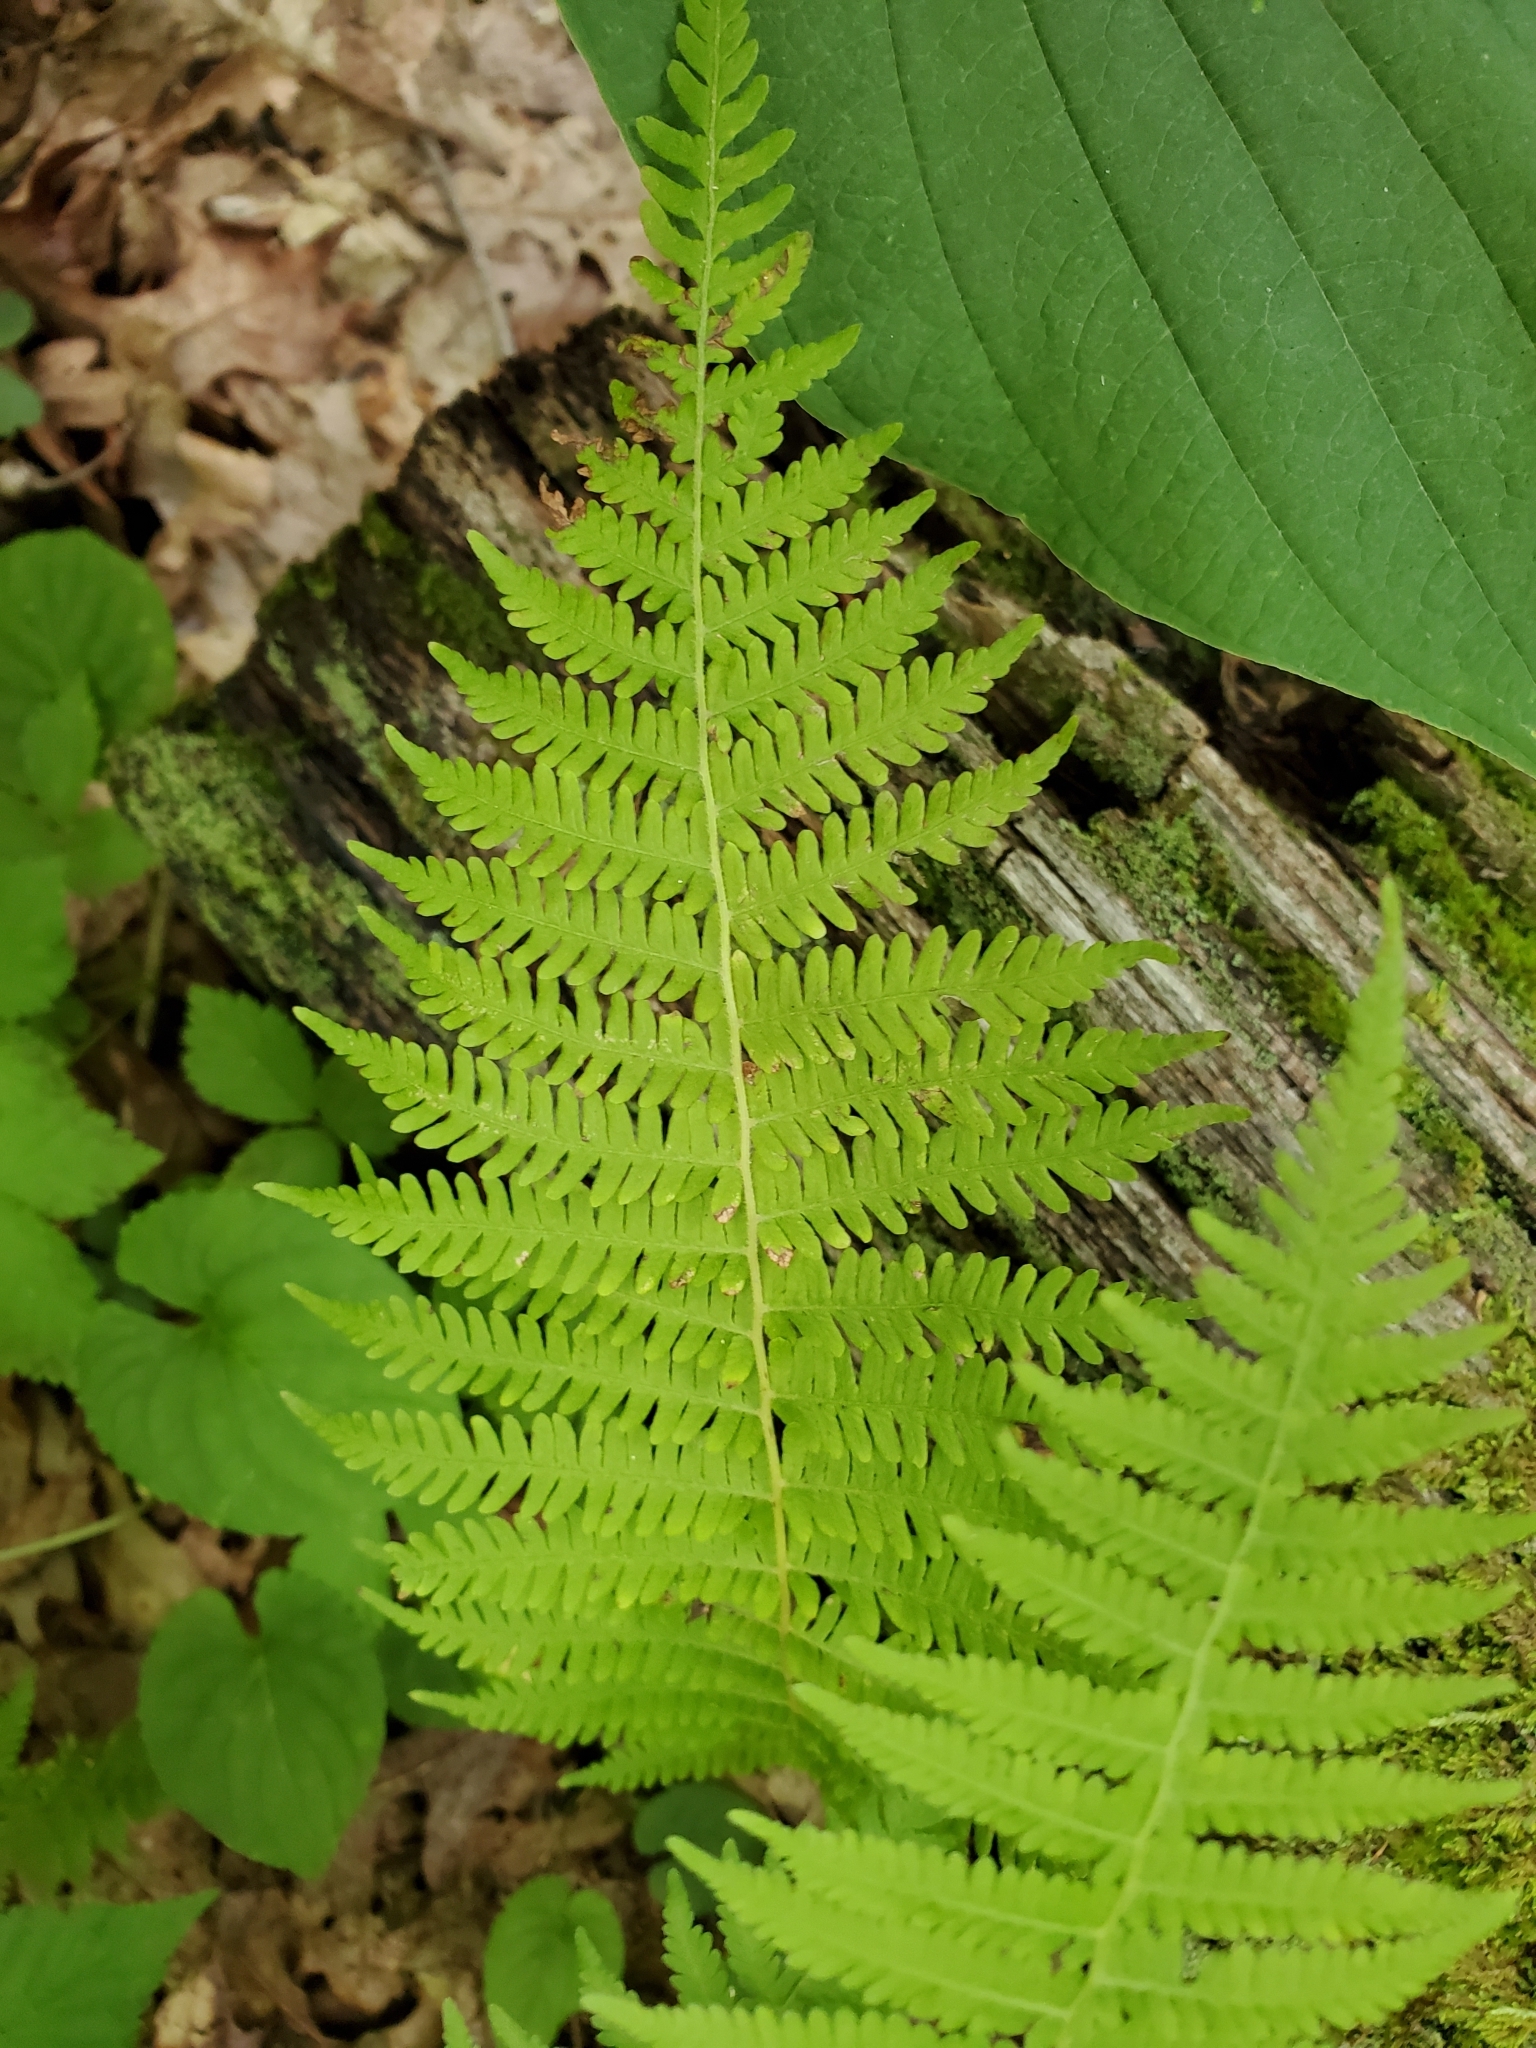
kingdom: Plantae
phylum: Tracheophyta
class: Polypodiopsida
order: Polypodiales
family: Thelypteridaceae
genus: Amauropelta
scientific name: Amauropelta noveboracensis
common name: New york fern
